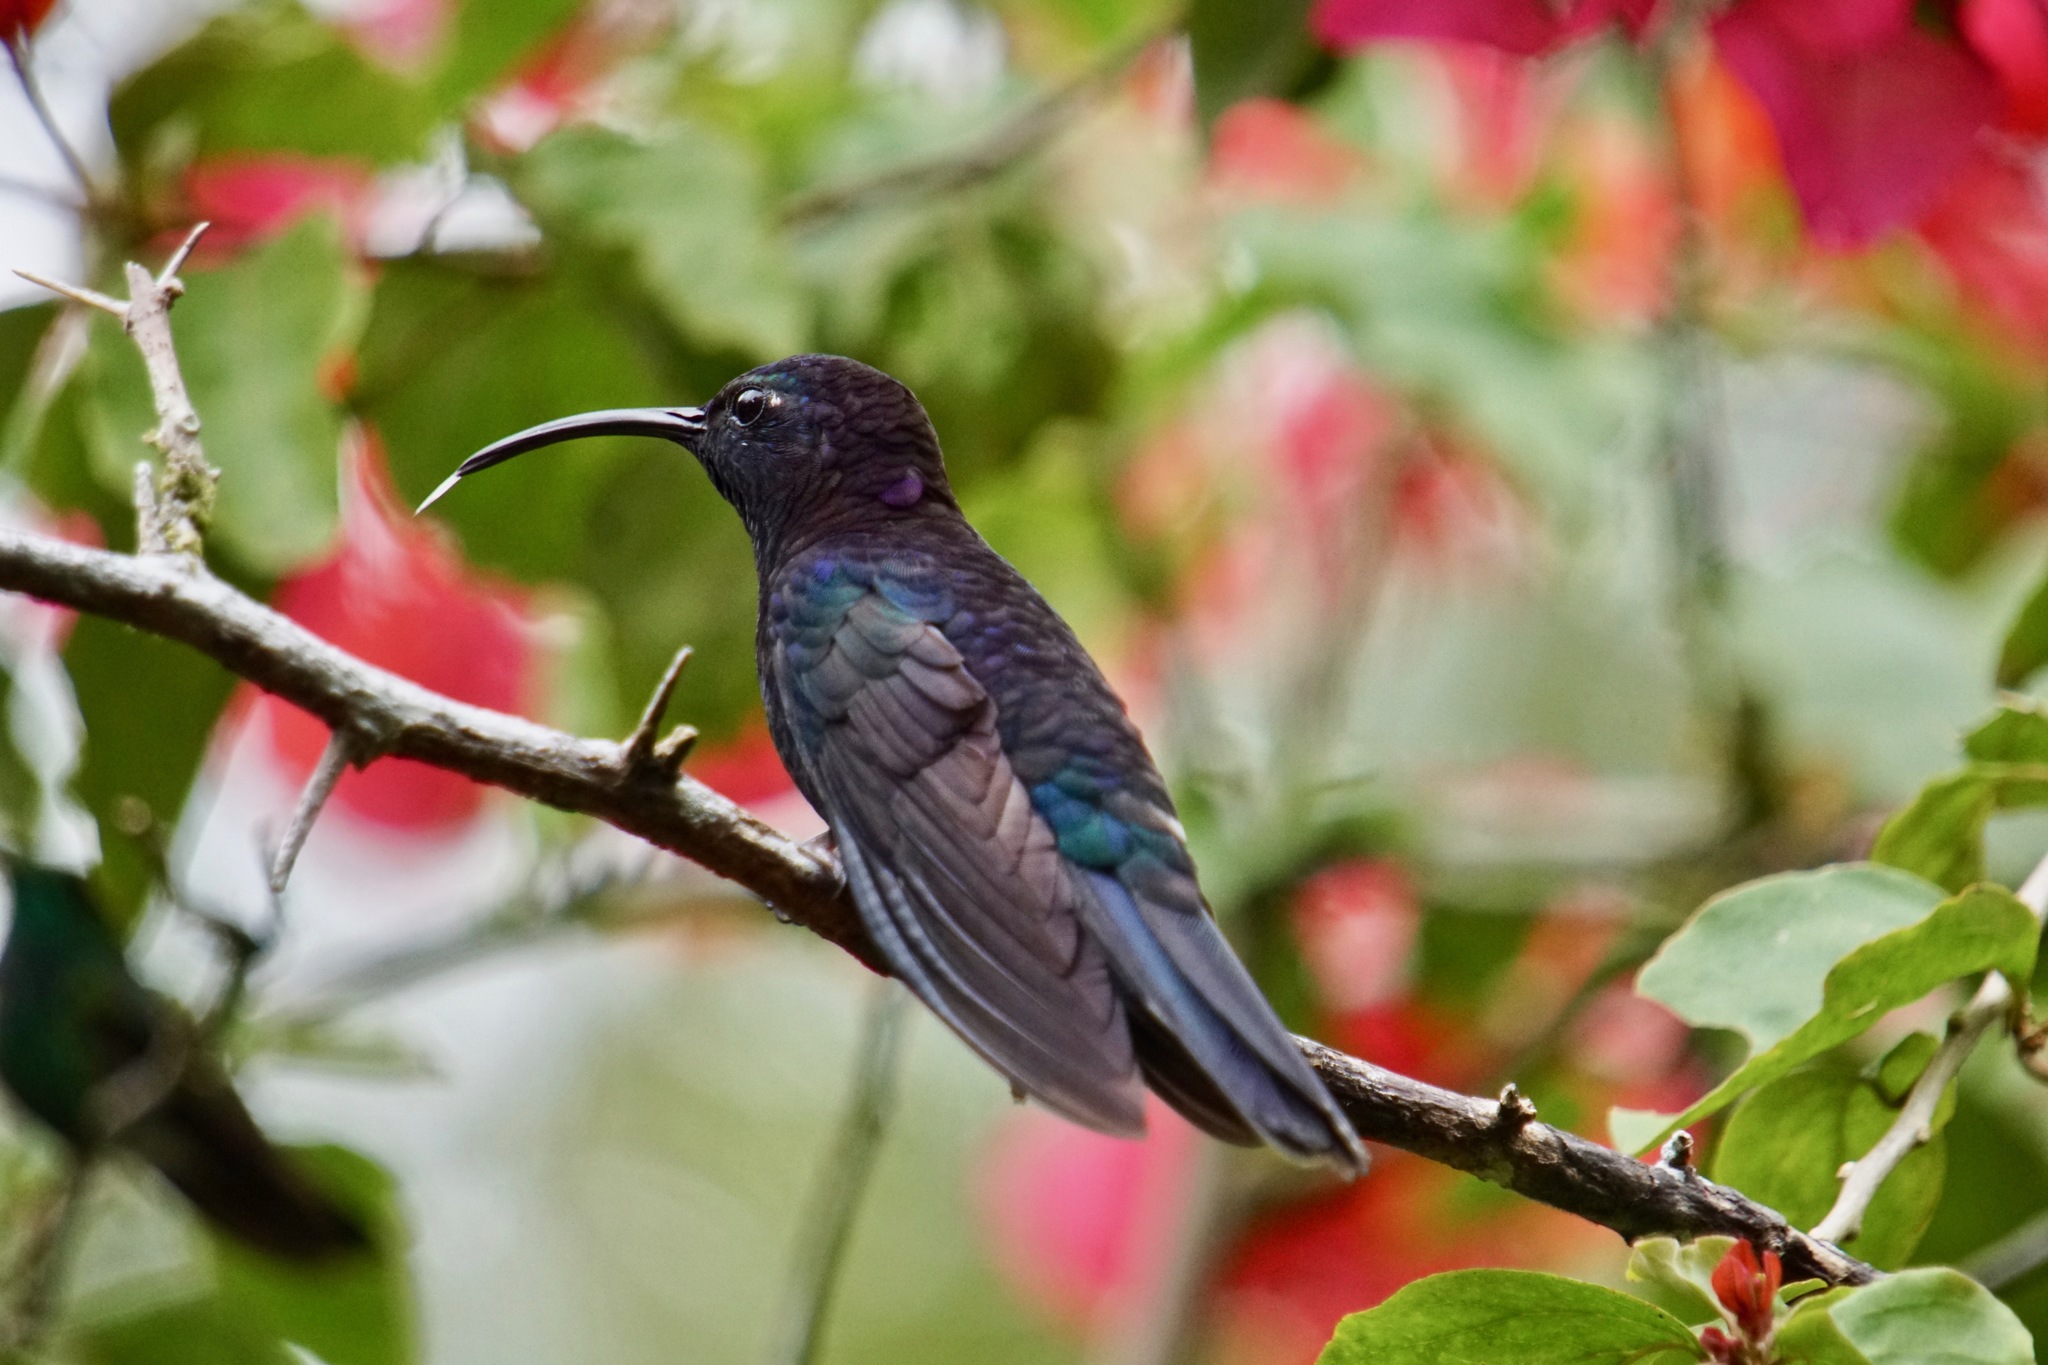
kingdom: Animalia
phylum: Chordata
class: Aves
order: Apodiformes
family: Trochilidae
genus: Campylopterus
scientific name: Campylopterus hemileucurus
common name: Violet sabrewing
